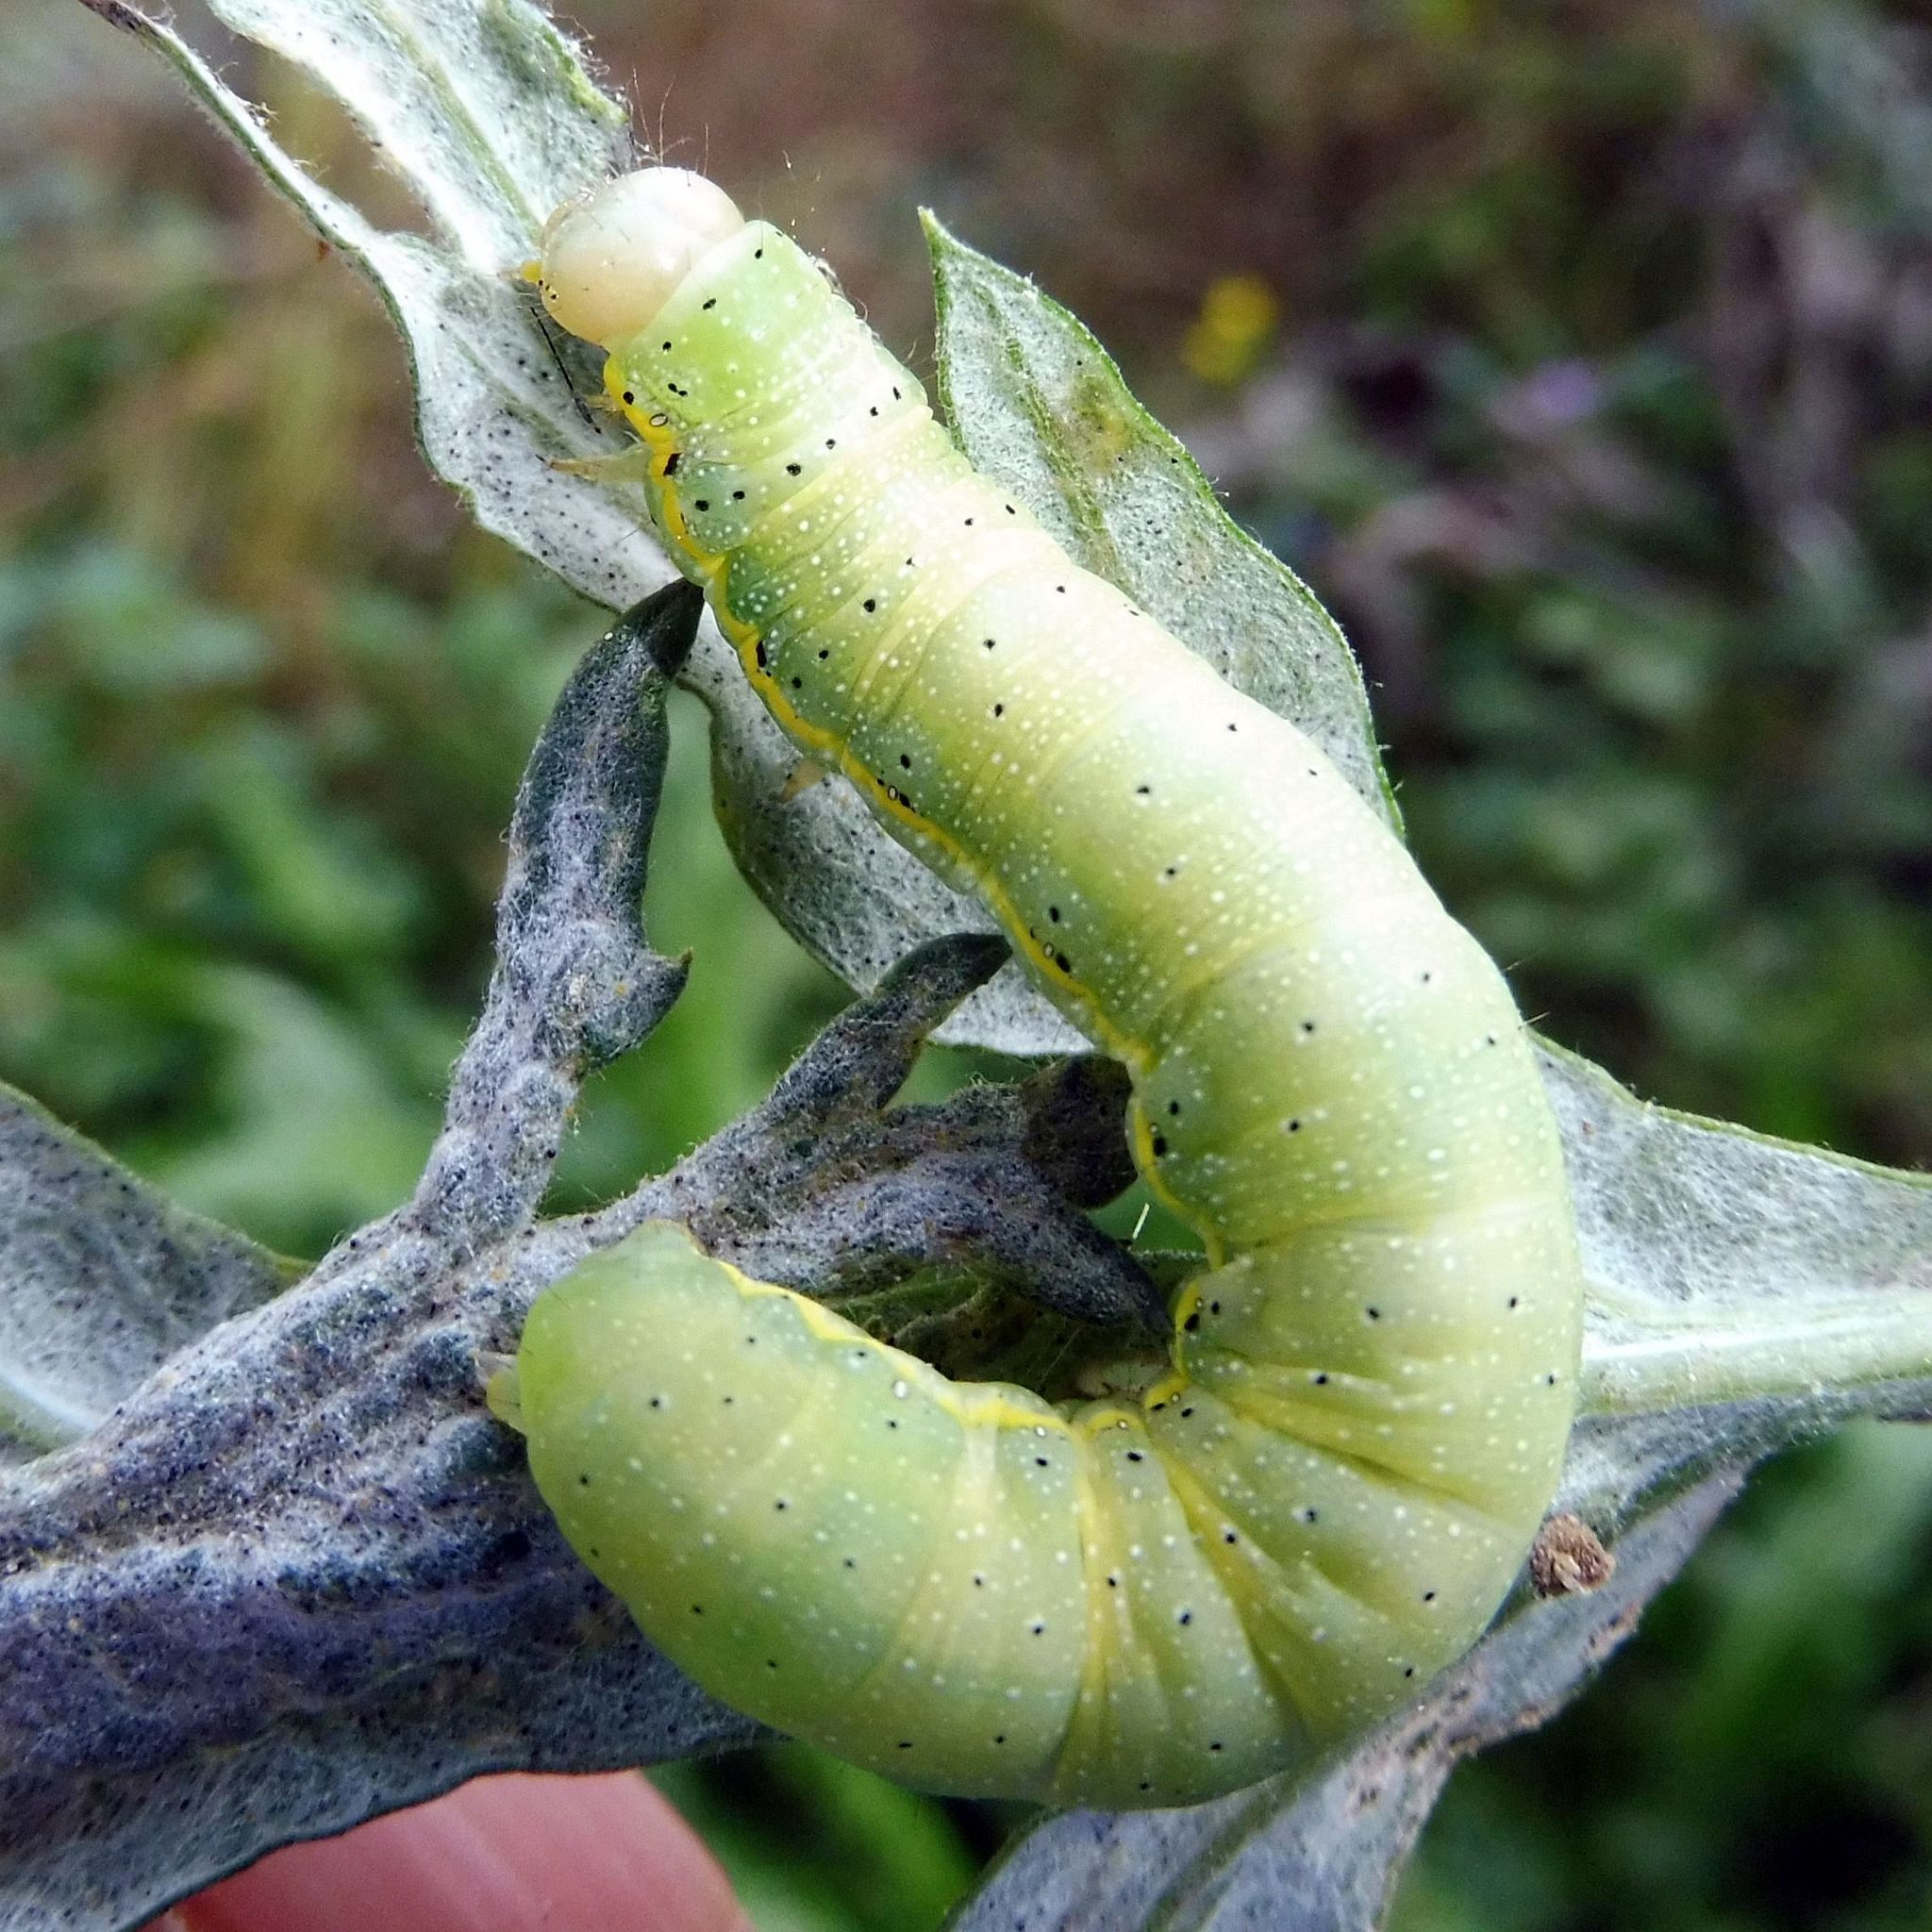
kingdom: Animalia
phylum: Arthropoda
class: Insecta
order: Lepidoptera
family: Noctuidae
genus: Lacanobia
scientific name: Lacanobia oleracea
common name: Bright-line brown-eye
